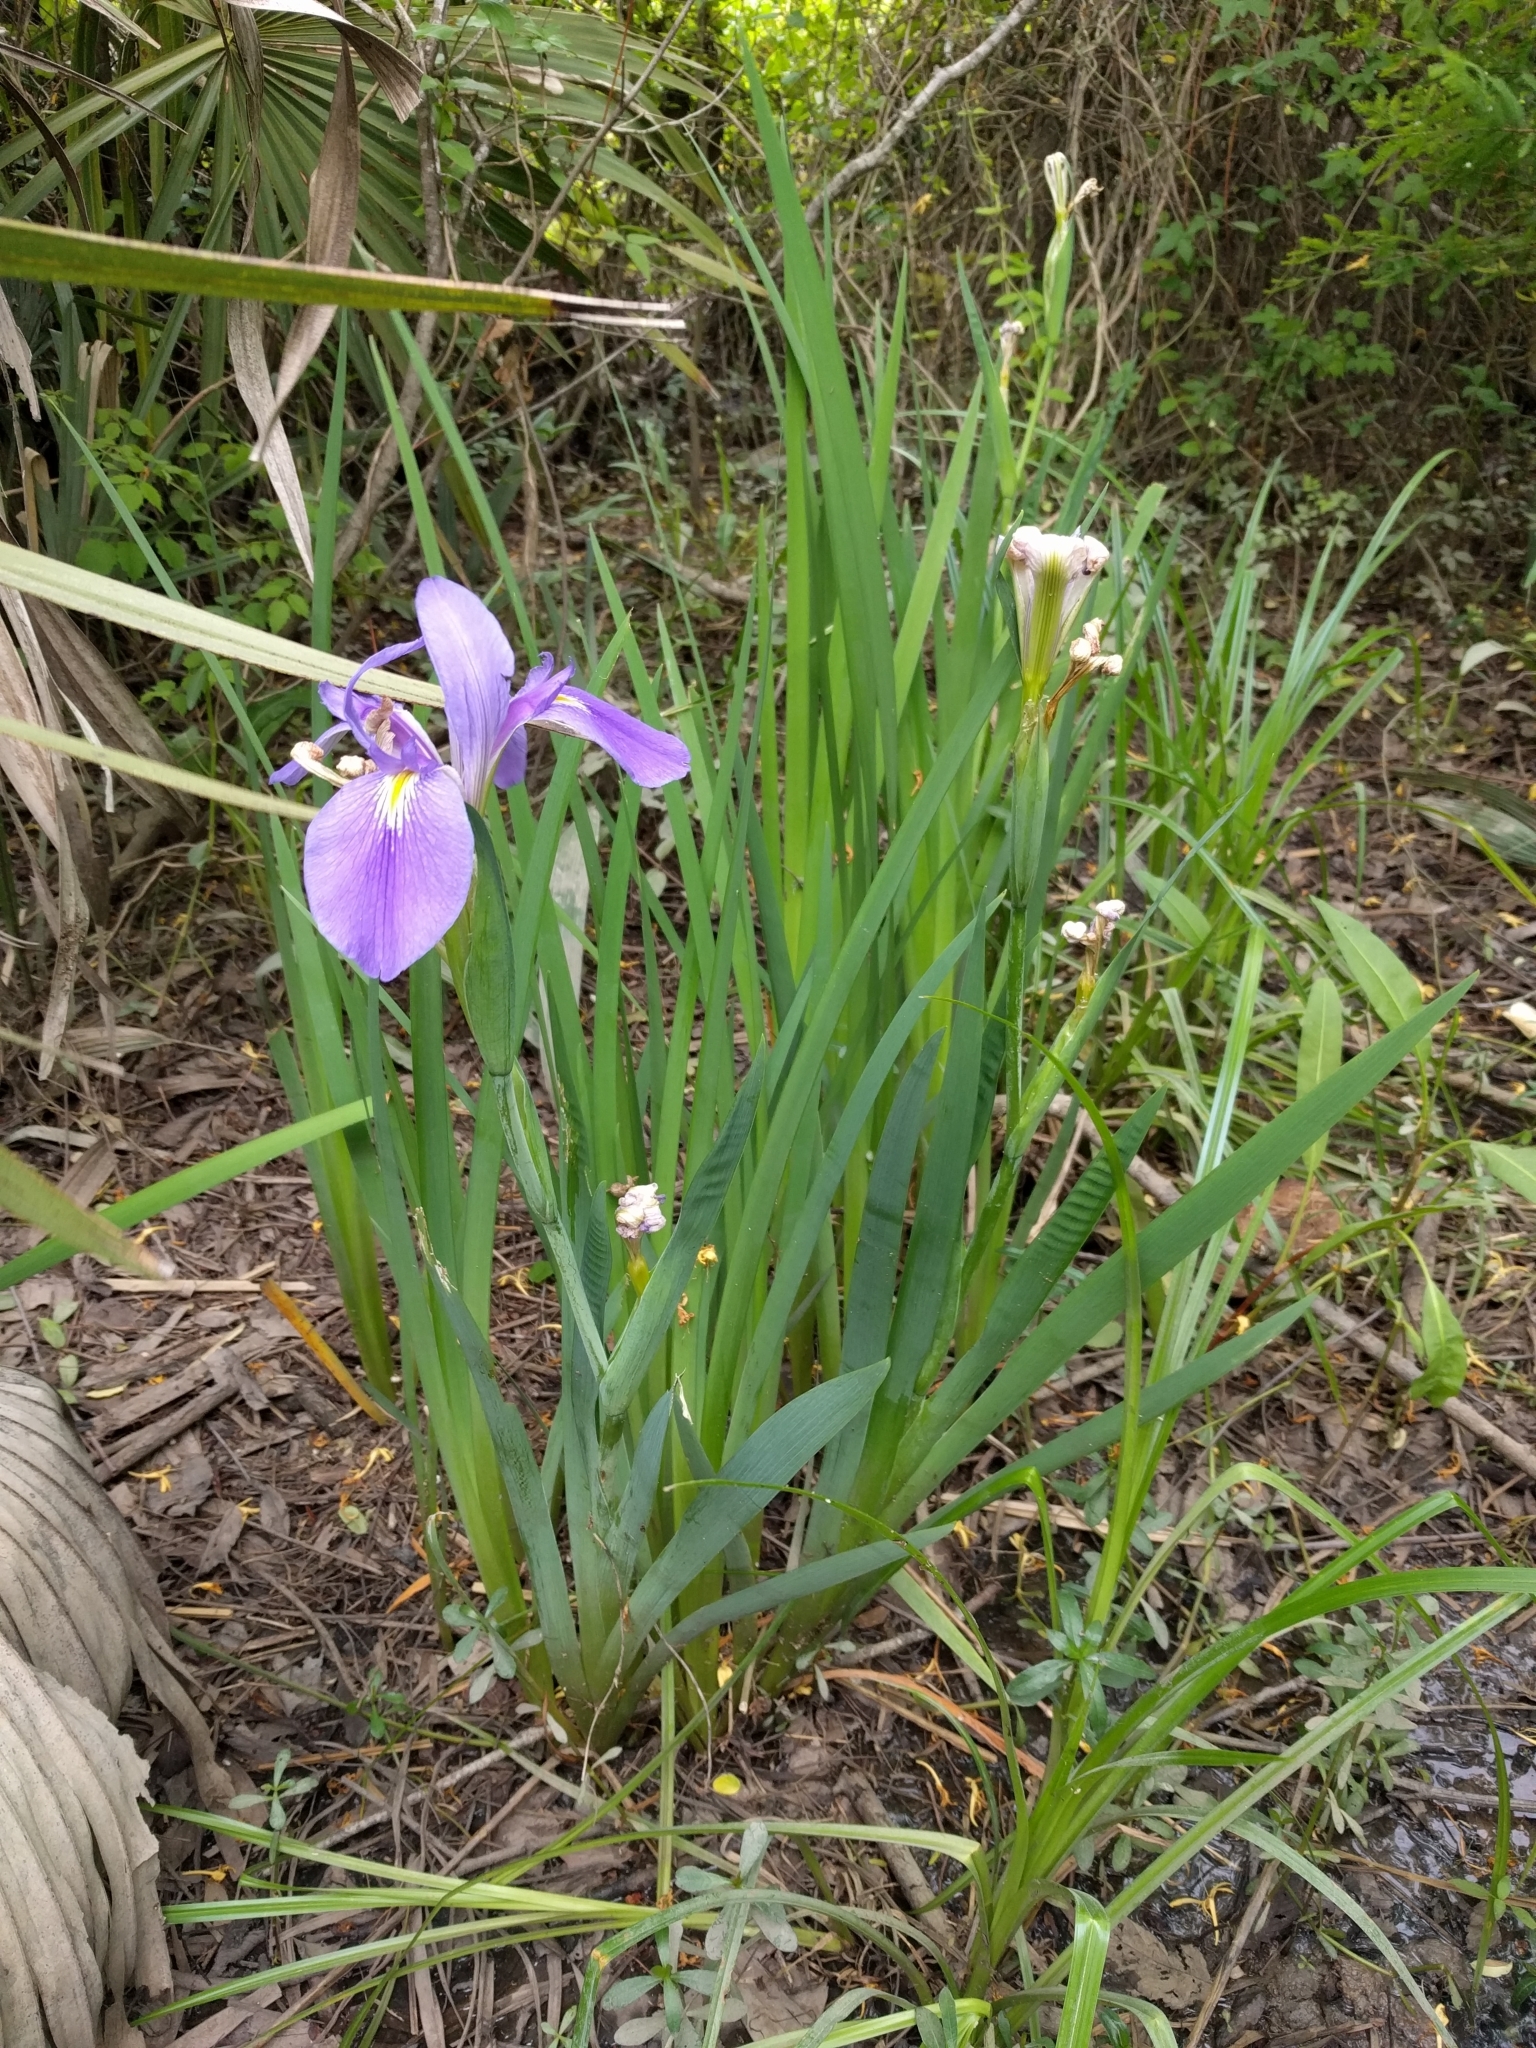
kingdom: Plantae
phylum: Tracheophyta
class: Liliopsida
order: Asparagales
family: Iridaceae
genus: Iris
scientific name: Iris giganticaerulea
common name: Giant blue iris
